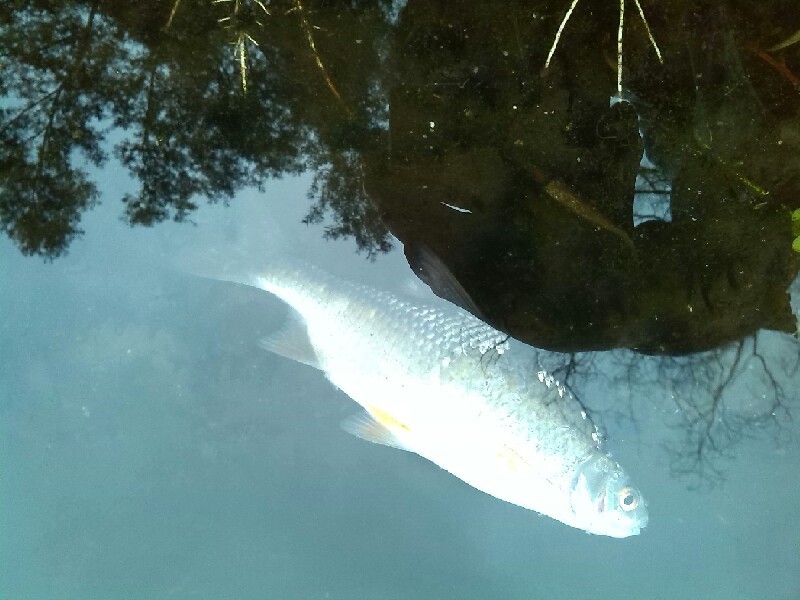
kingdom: Animalia
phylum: Chordata
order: Cypriniformes
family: Cyprinidae
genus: Rutilus
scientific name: Rutilus rutilus
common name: Roach
